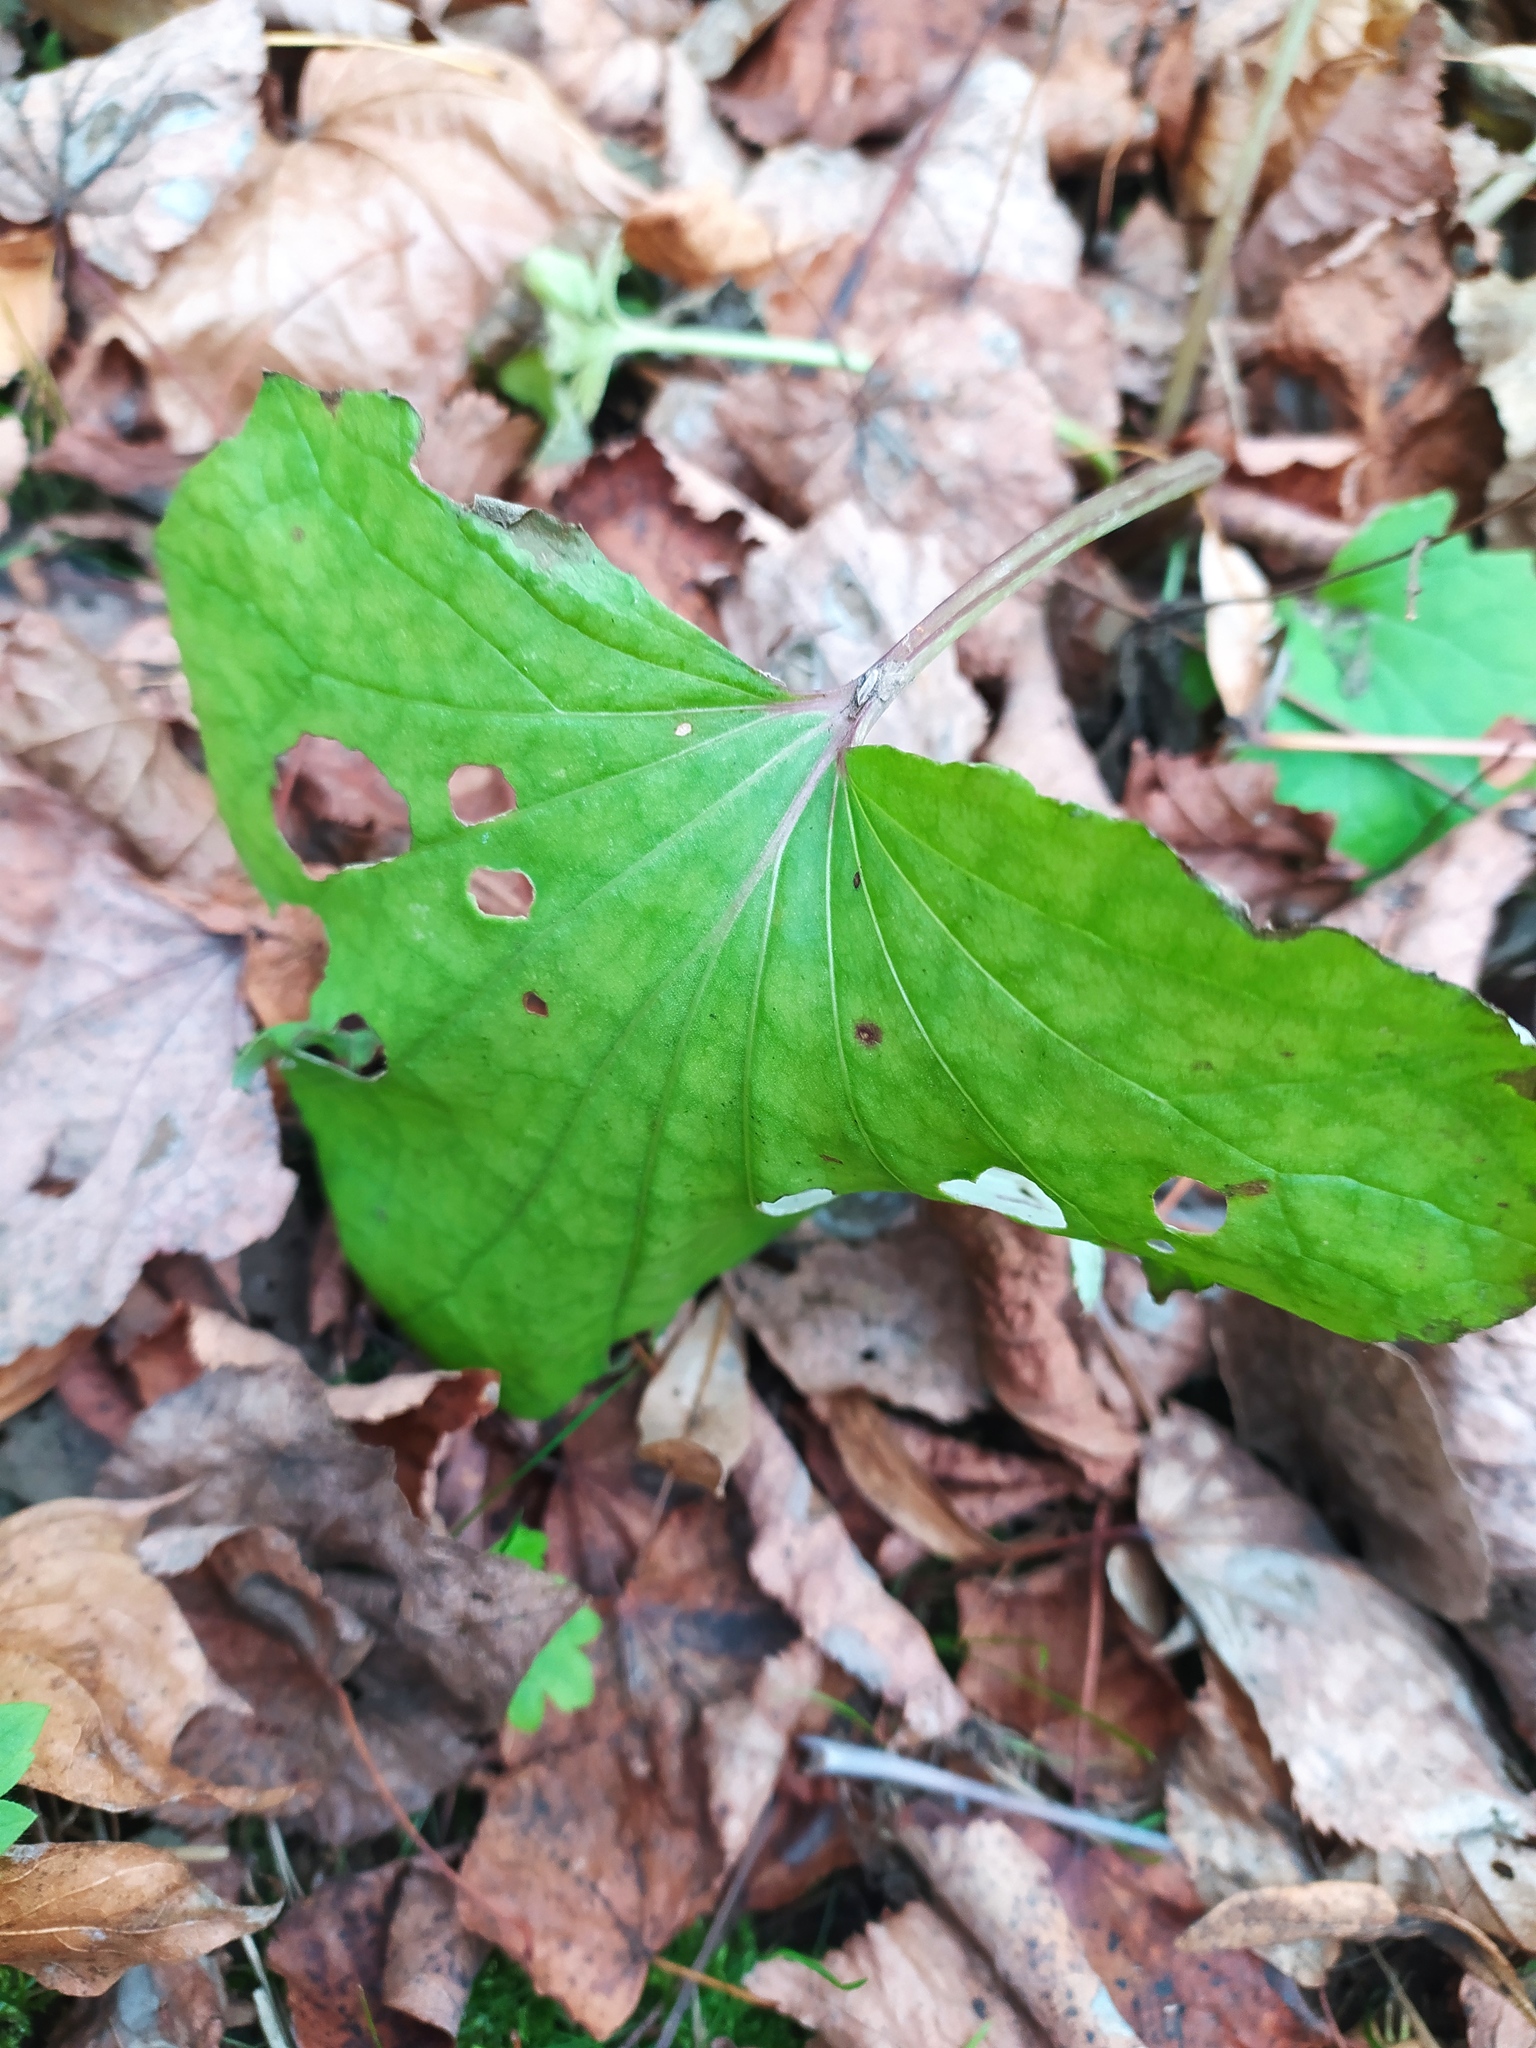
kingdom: Plantae
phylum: Tracheophyta
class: Magnoliopsida
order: Asterales
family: Asteraceae
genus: Tussilago
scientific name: Tussilago farfara
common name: Coltsfoot
